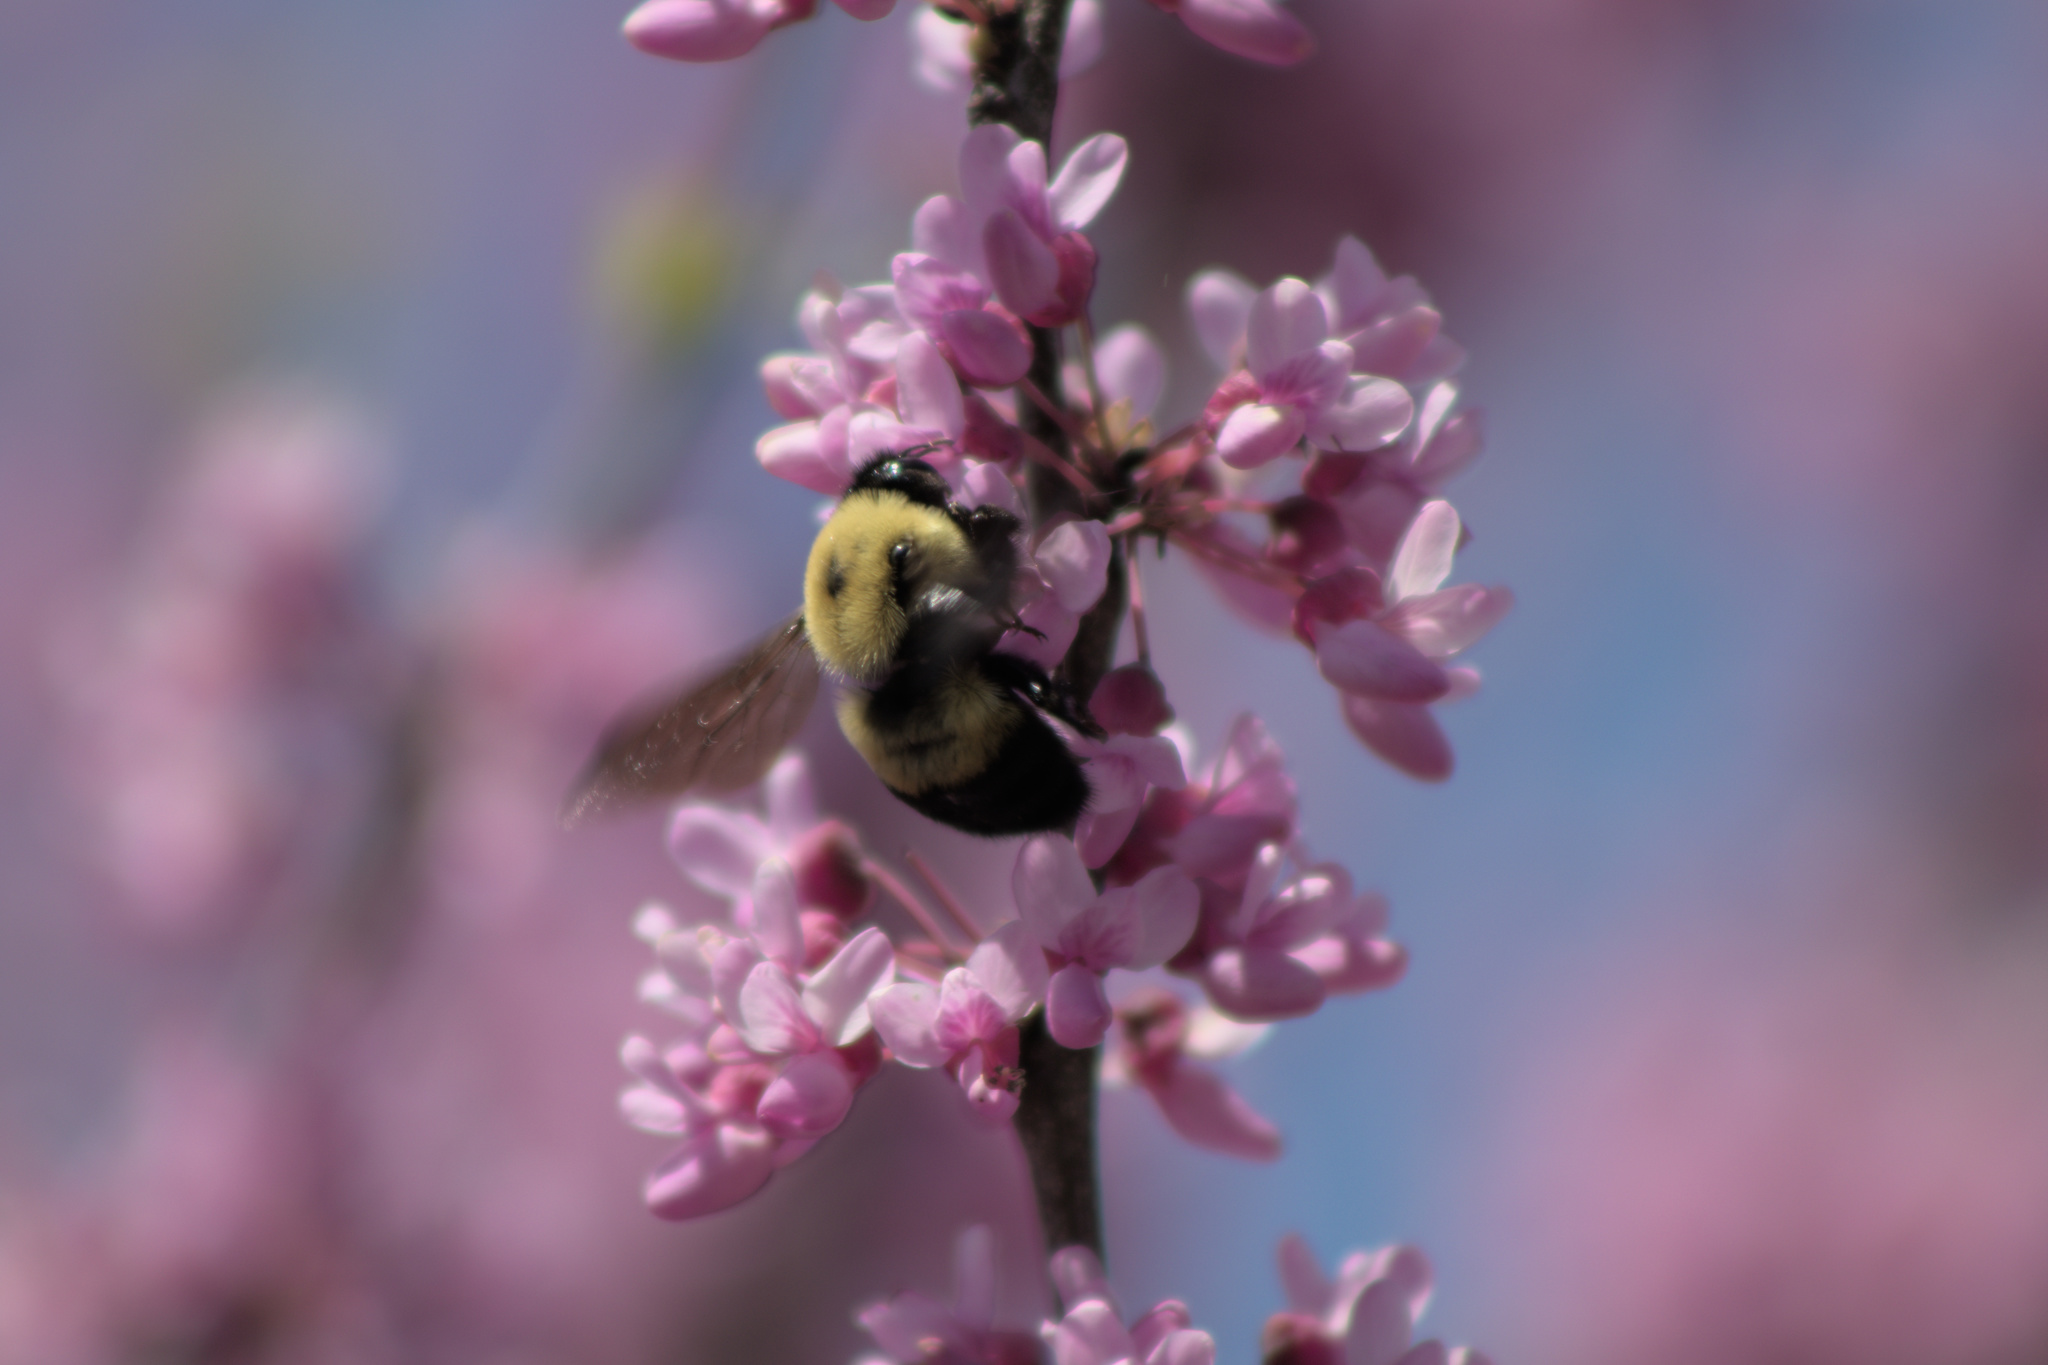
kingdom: Animalia
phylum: Arthropoda
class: Insecta
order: Hymenoptera
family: Apidae
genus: Bombus
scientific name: Bombus griseocollis
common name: Brown-belted bumble bee
